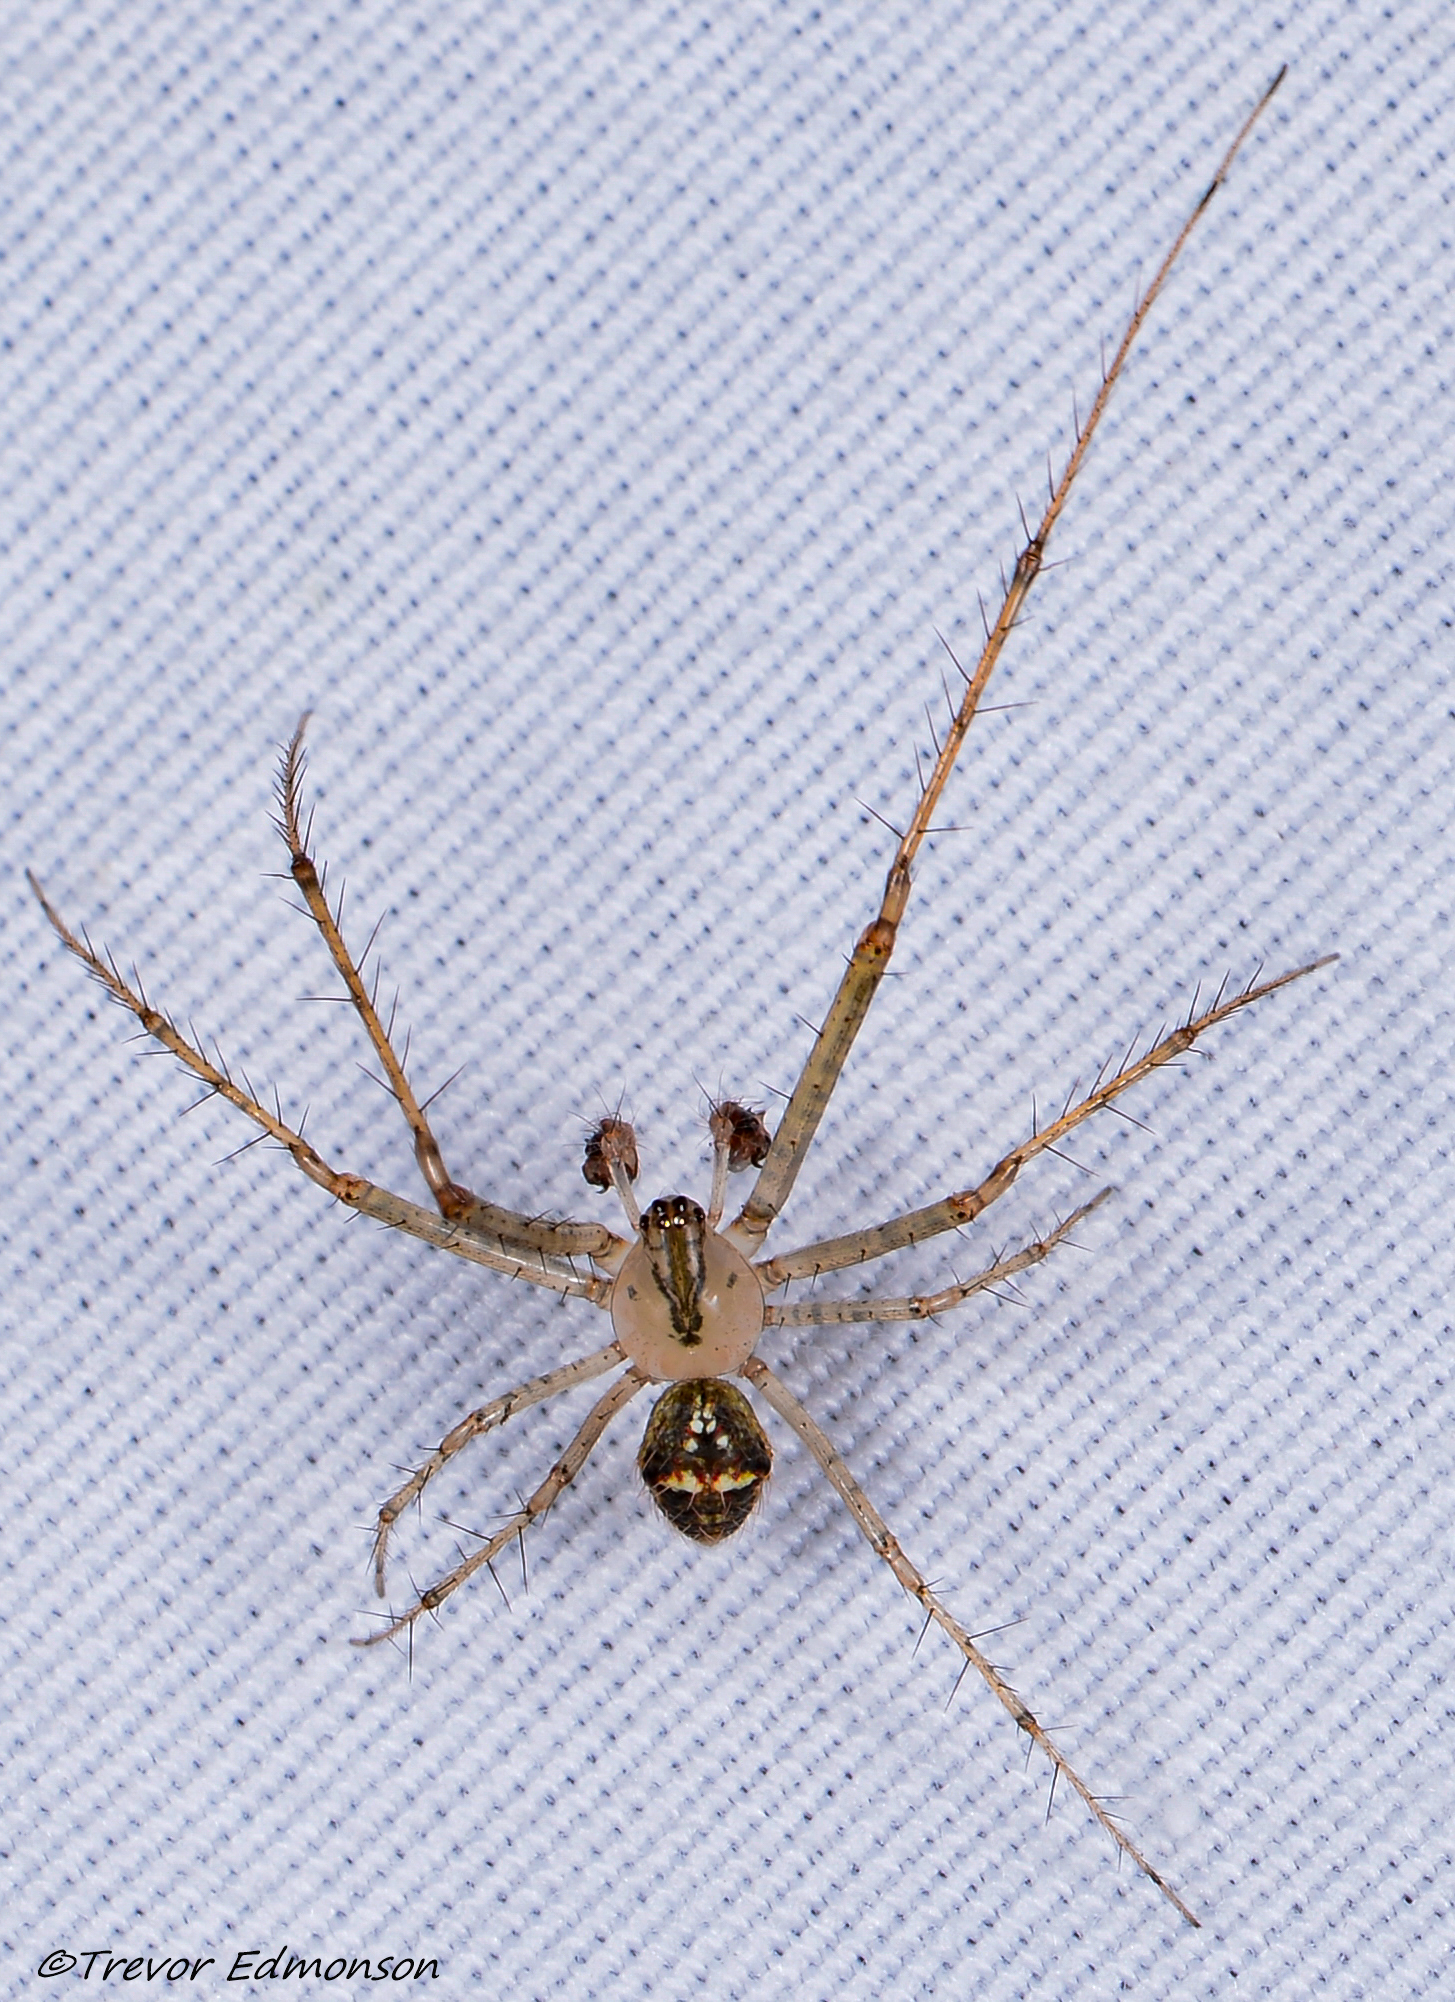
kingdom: Animalia
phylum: Arthropoda
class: Arachnida
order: Araneae
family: Mimetidae
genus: Mimetus
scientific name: Mimetus puritanus
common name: Common pirate spider
